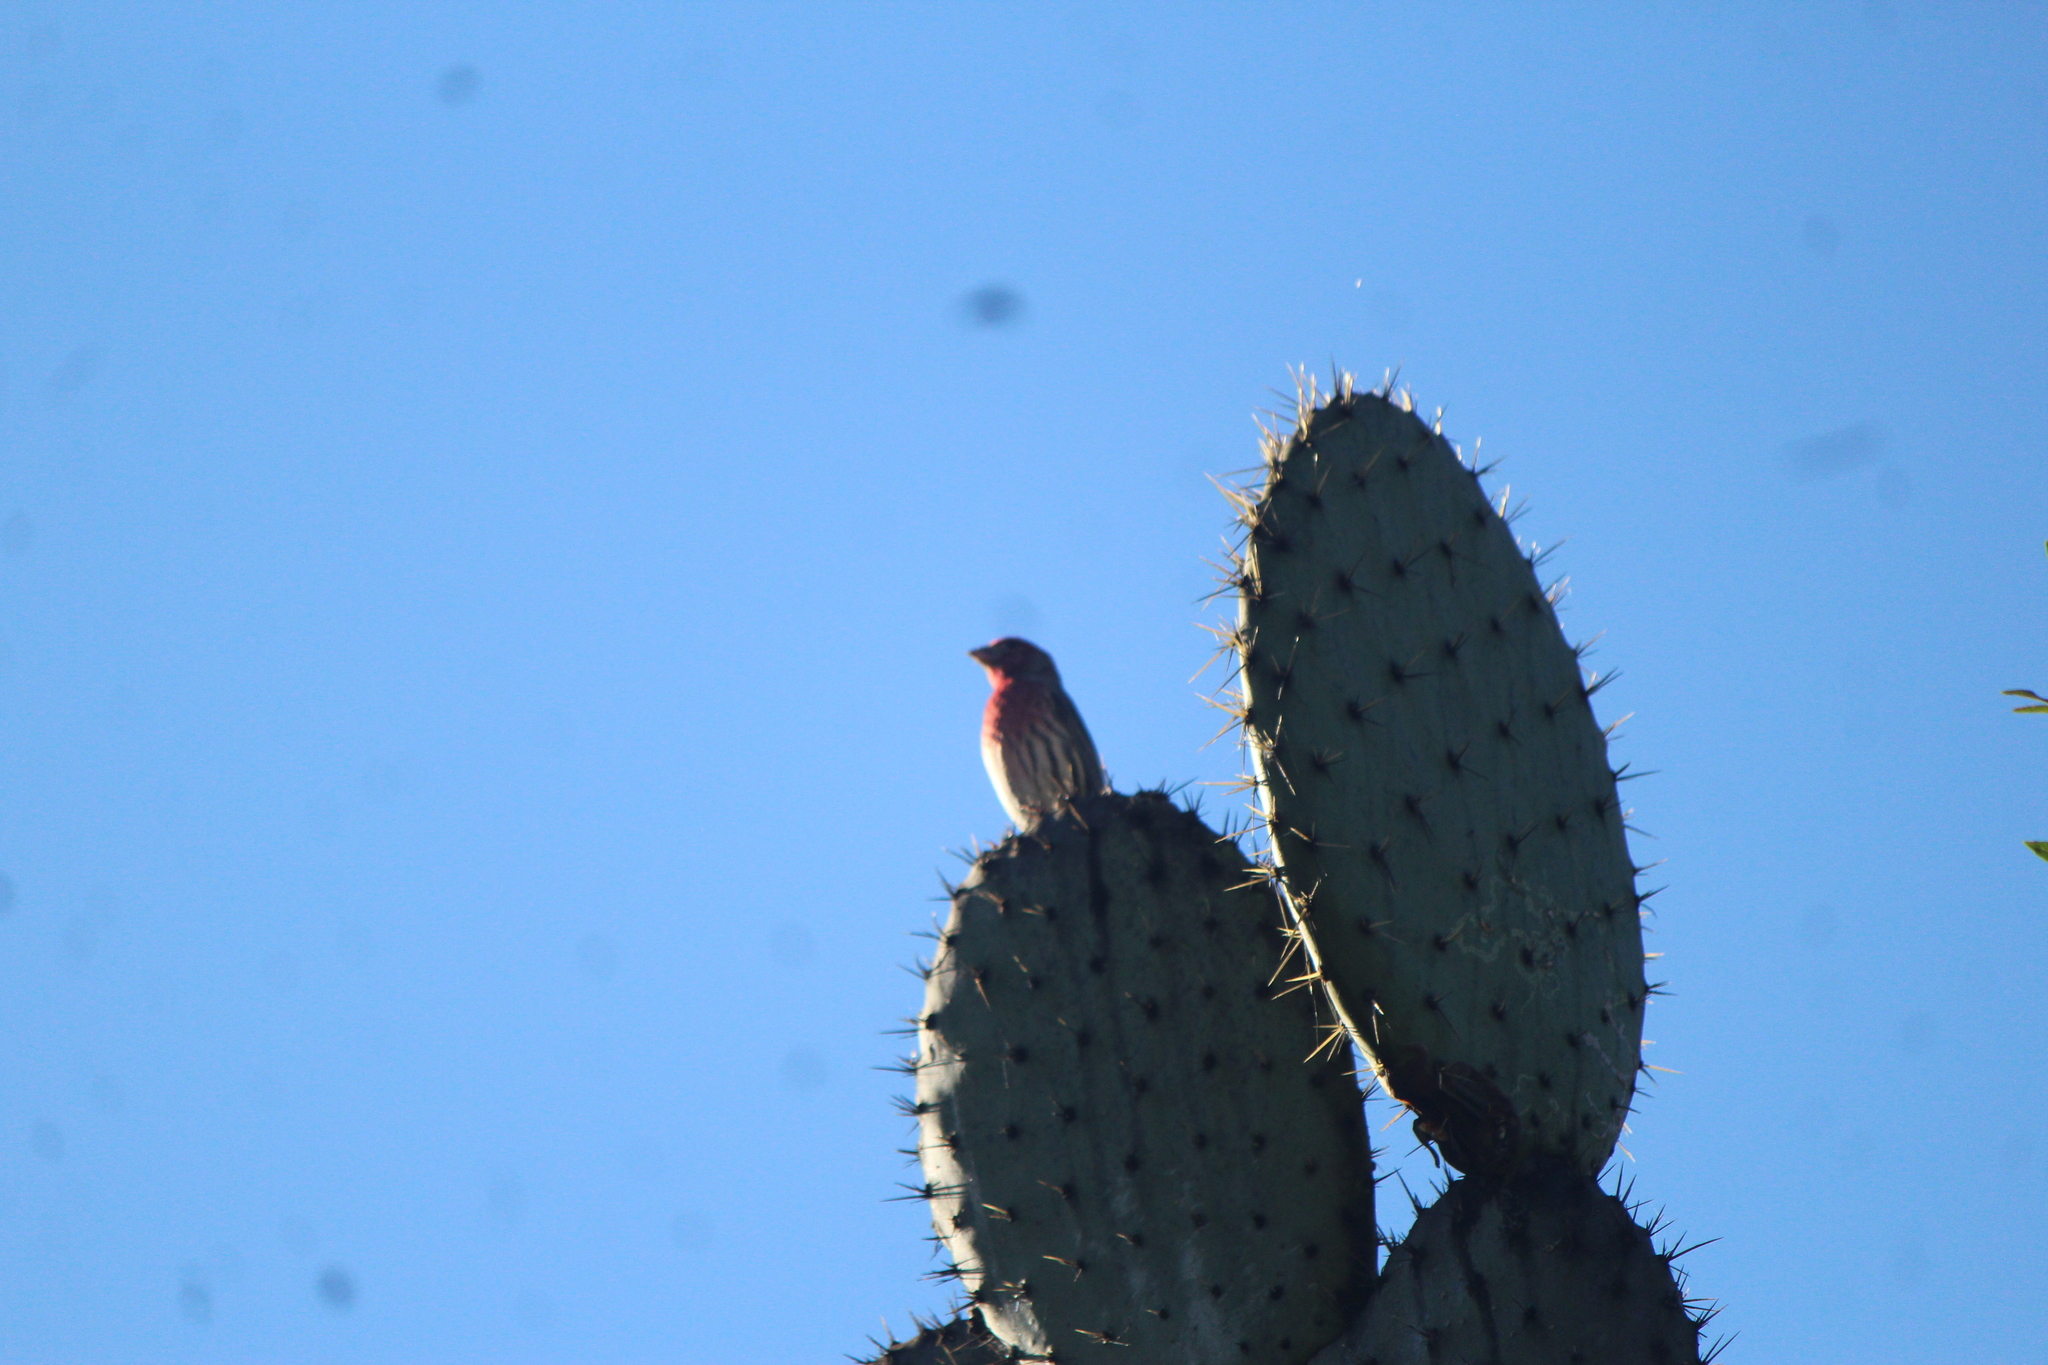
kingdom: Animalia
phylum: Chordata
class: Aves
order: Passeriformes
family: Fringillidae
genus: Haemorhous
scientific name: Haemorhous mexicanus
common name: House finch
